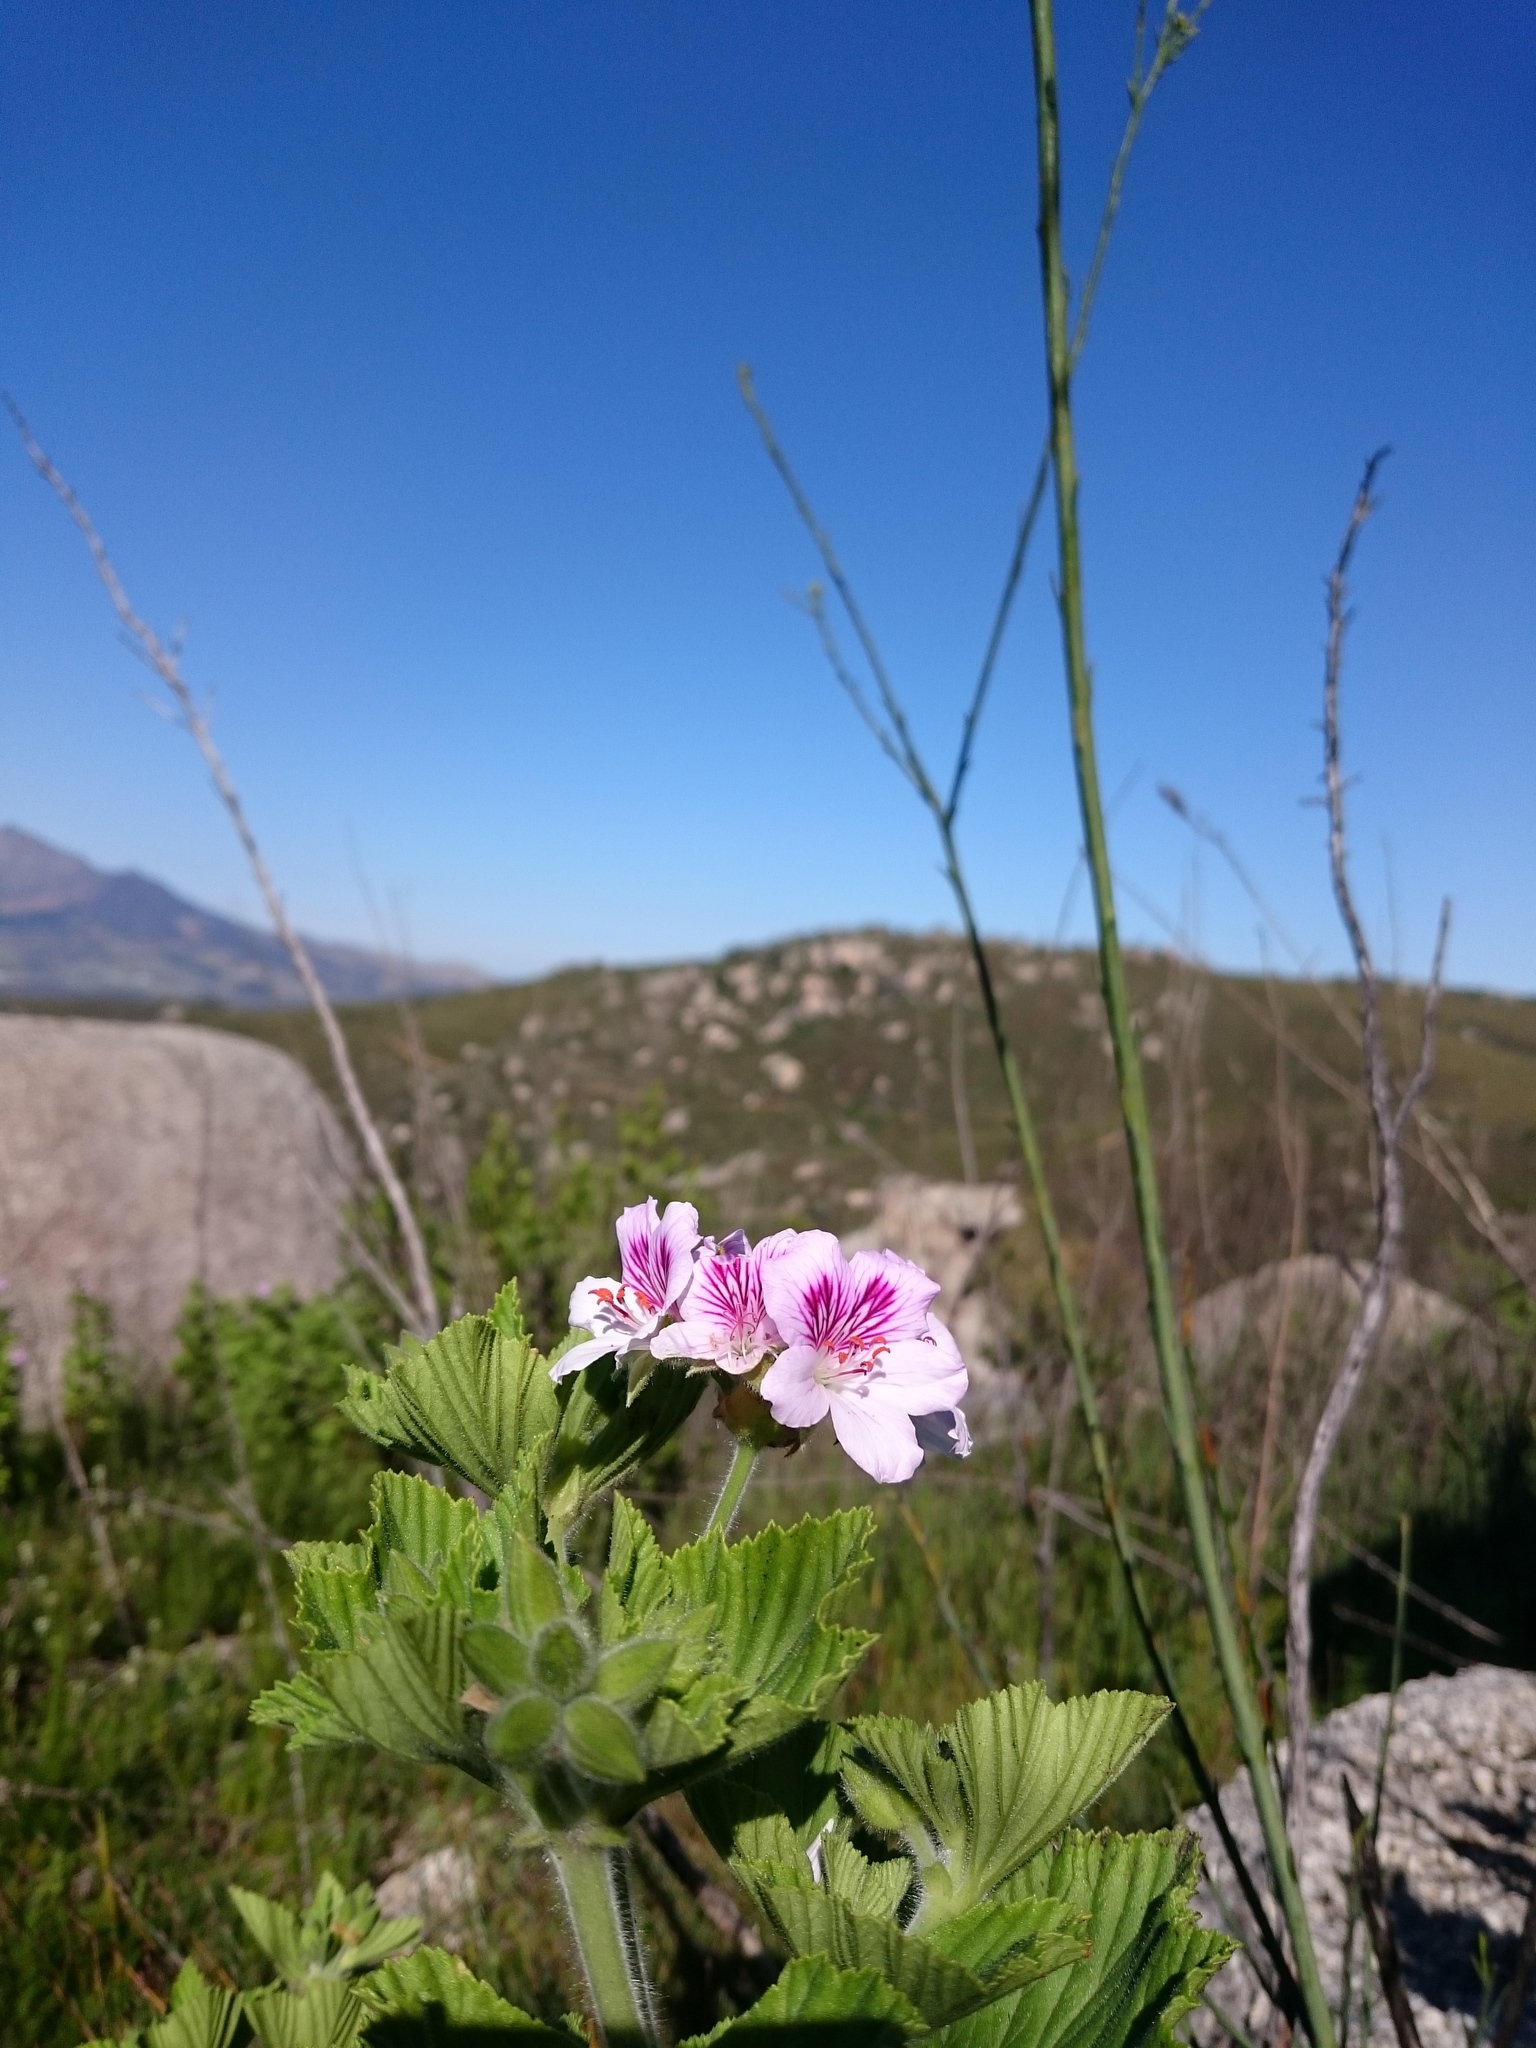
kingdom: Plantae
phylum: Tracheophyta
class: Magnoliopsida
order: Geraniales
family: Geraniaceae
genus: Pelargonium
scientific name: Pelargonium cucullatum
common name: Tree pelargonium
